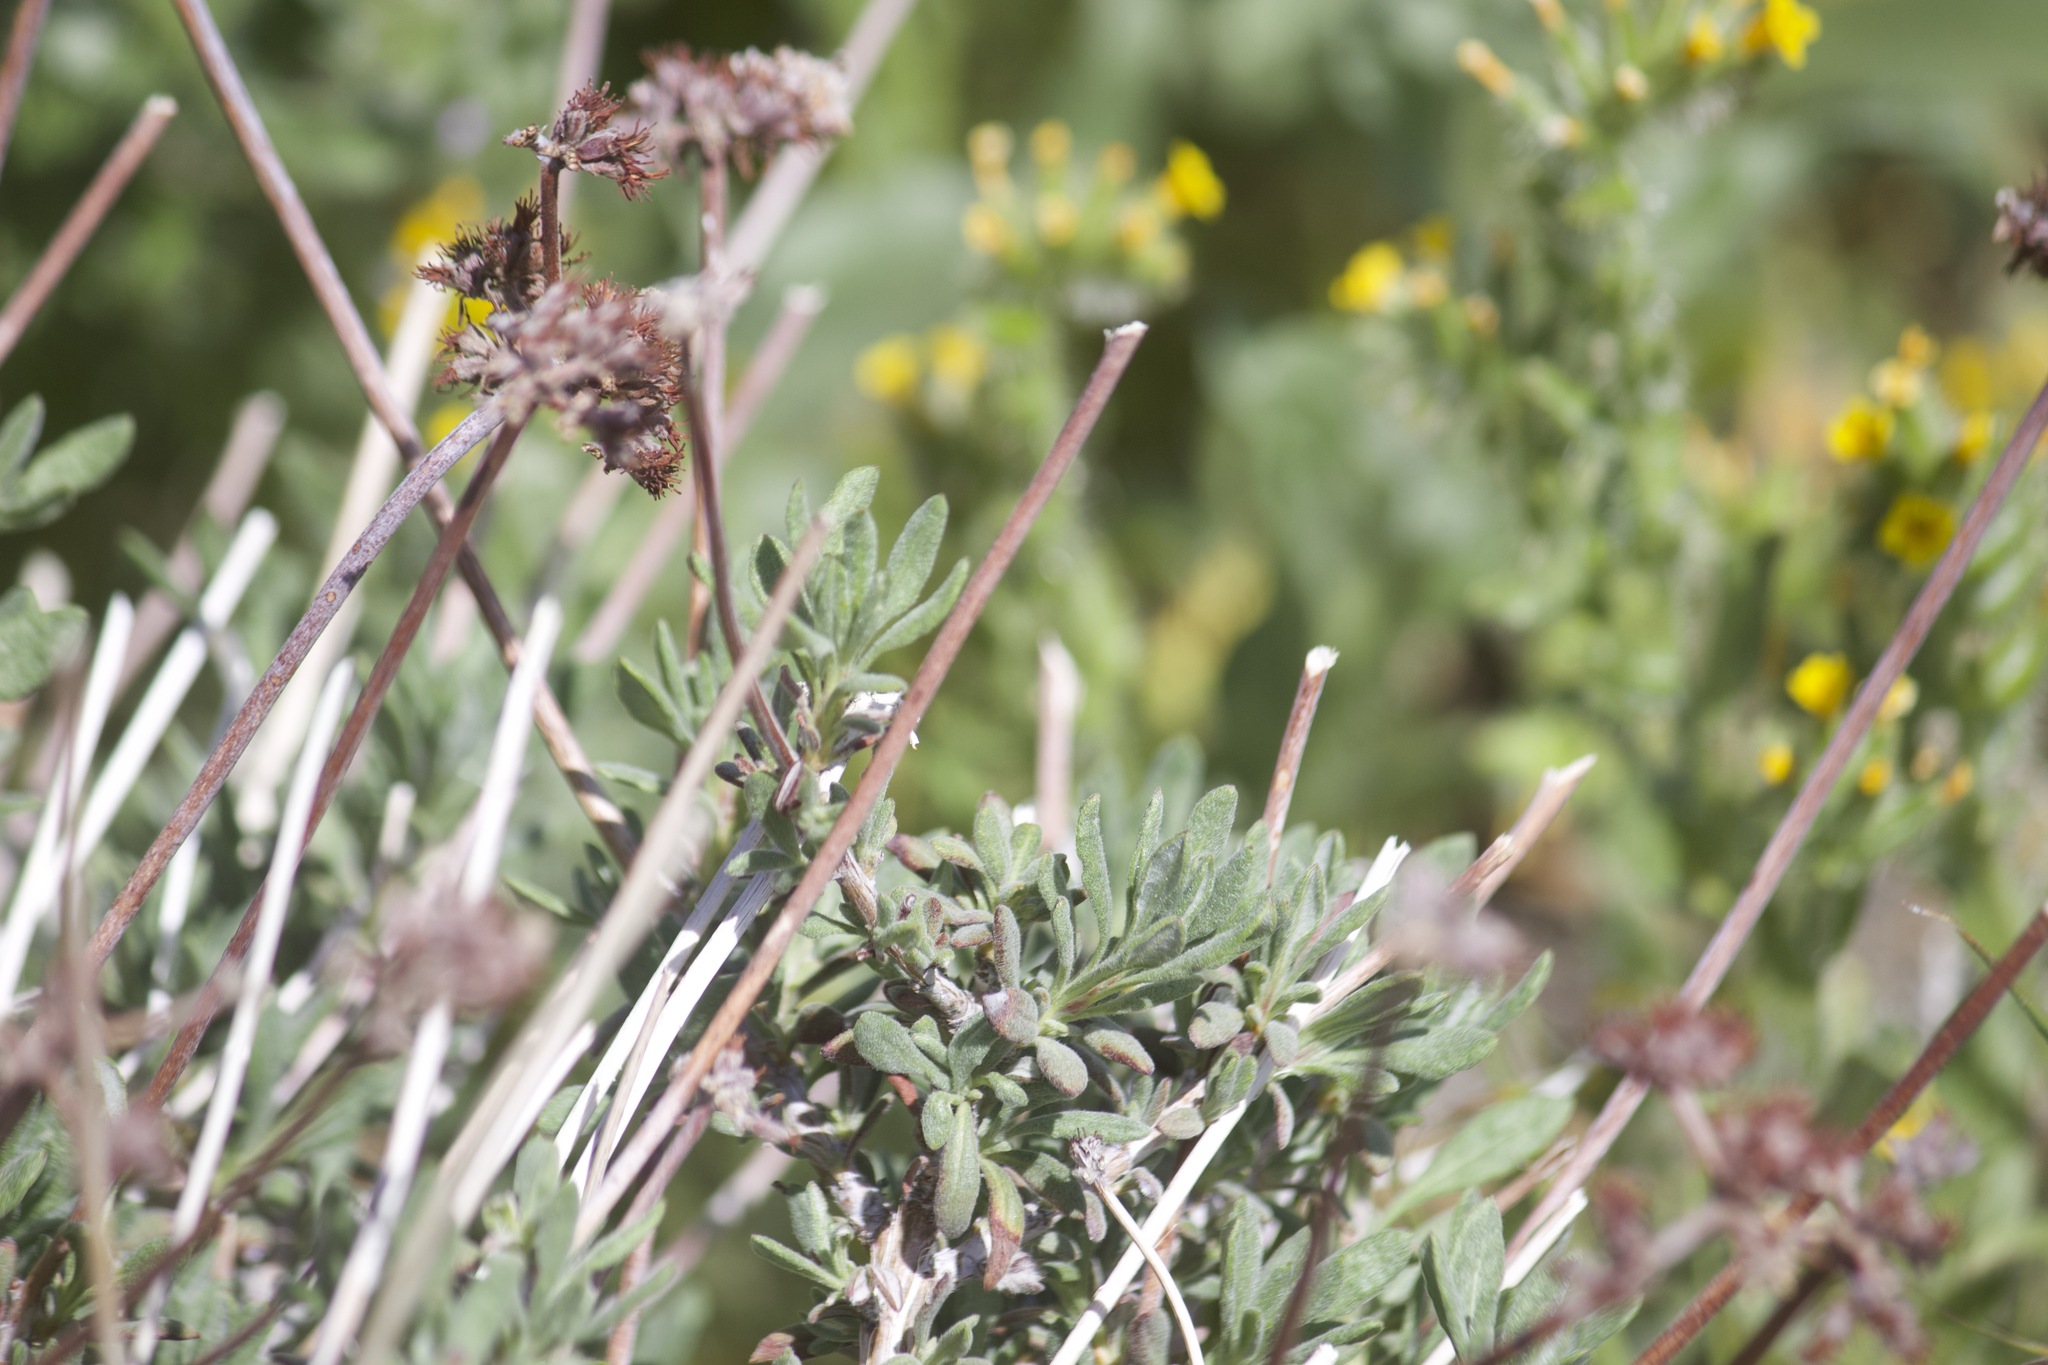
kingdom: Plantae
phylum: Tracheophyta
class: Magnoliopsida
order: Caryophyllales
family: Polygonaceae
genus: Eriogonum
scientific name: Eriogonum fasciculatum
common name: California wild buckwheat
